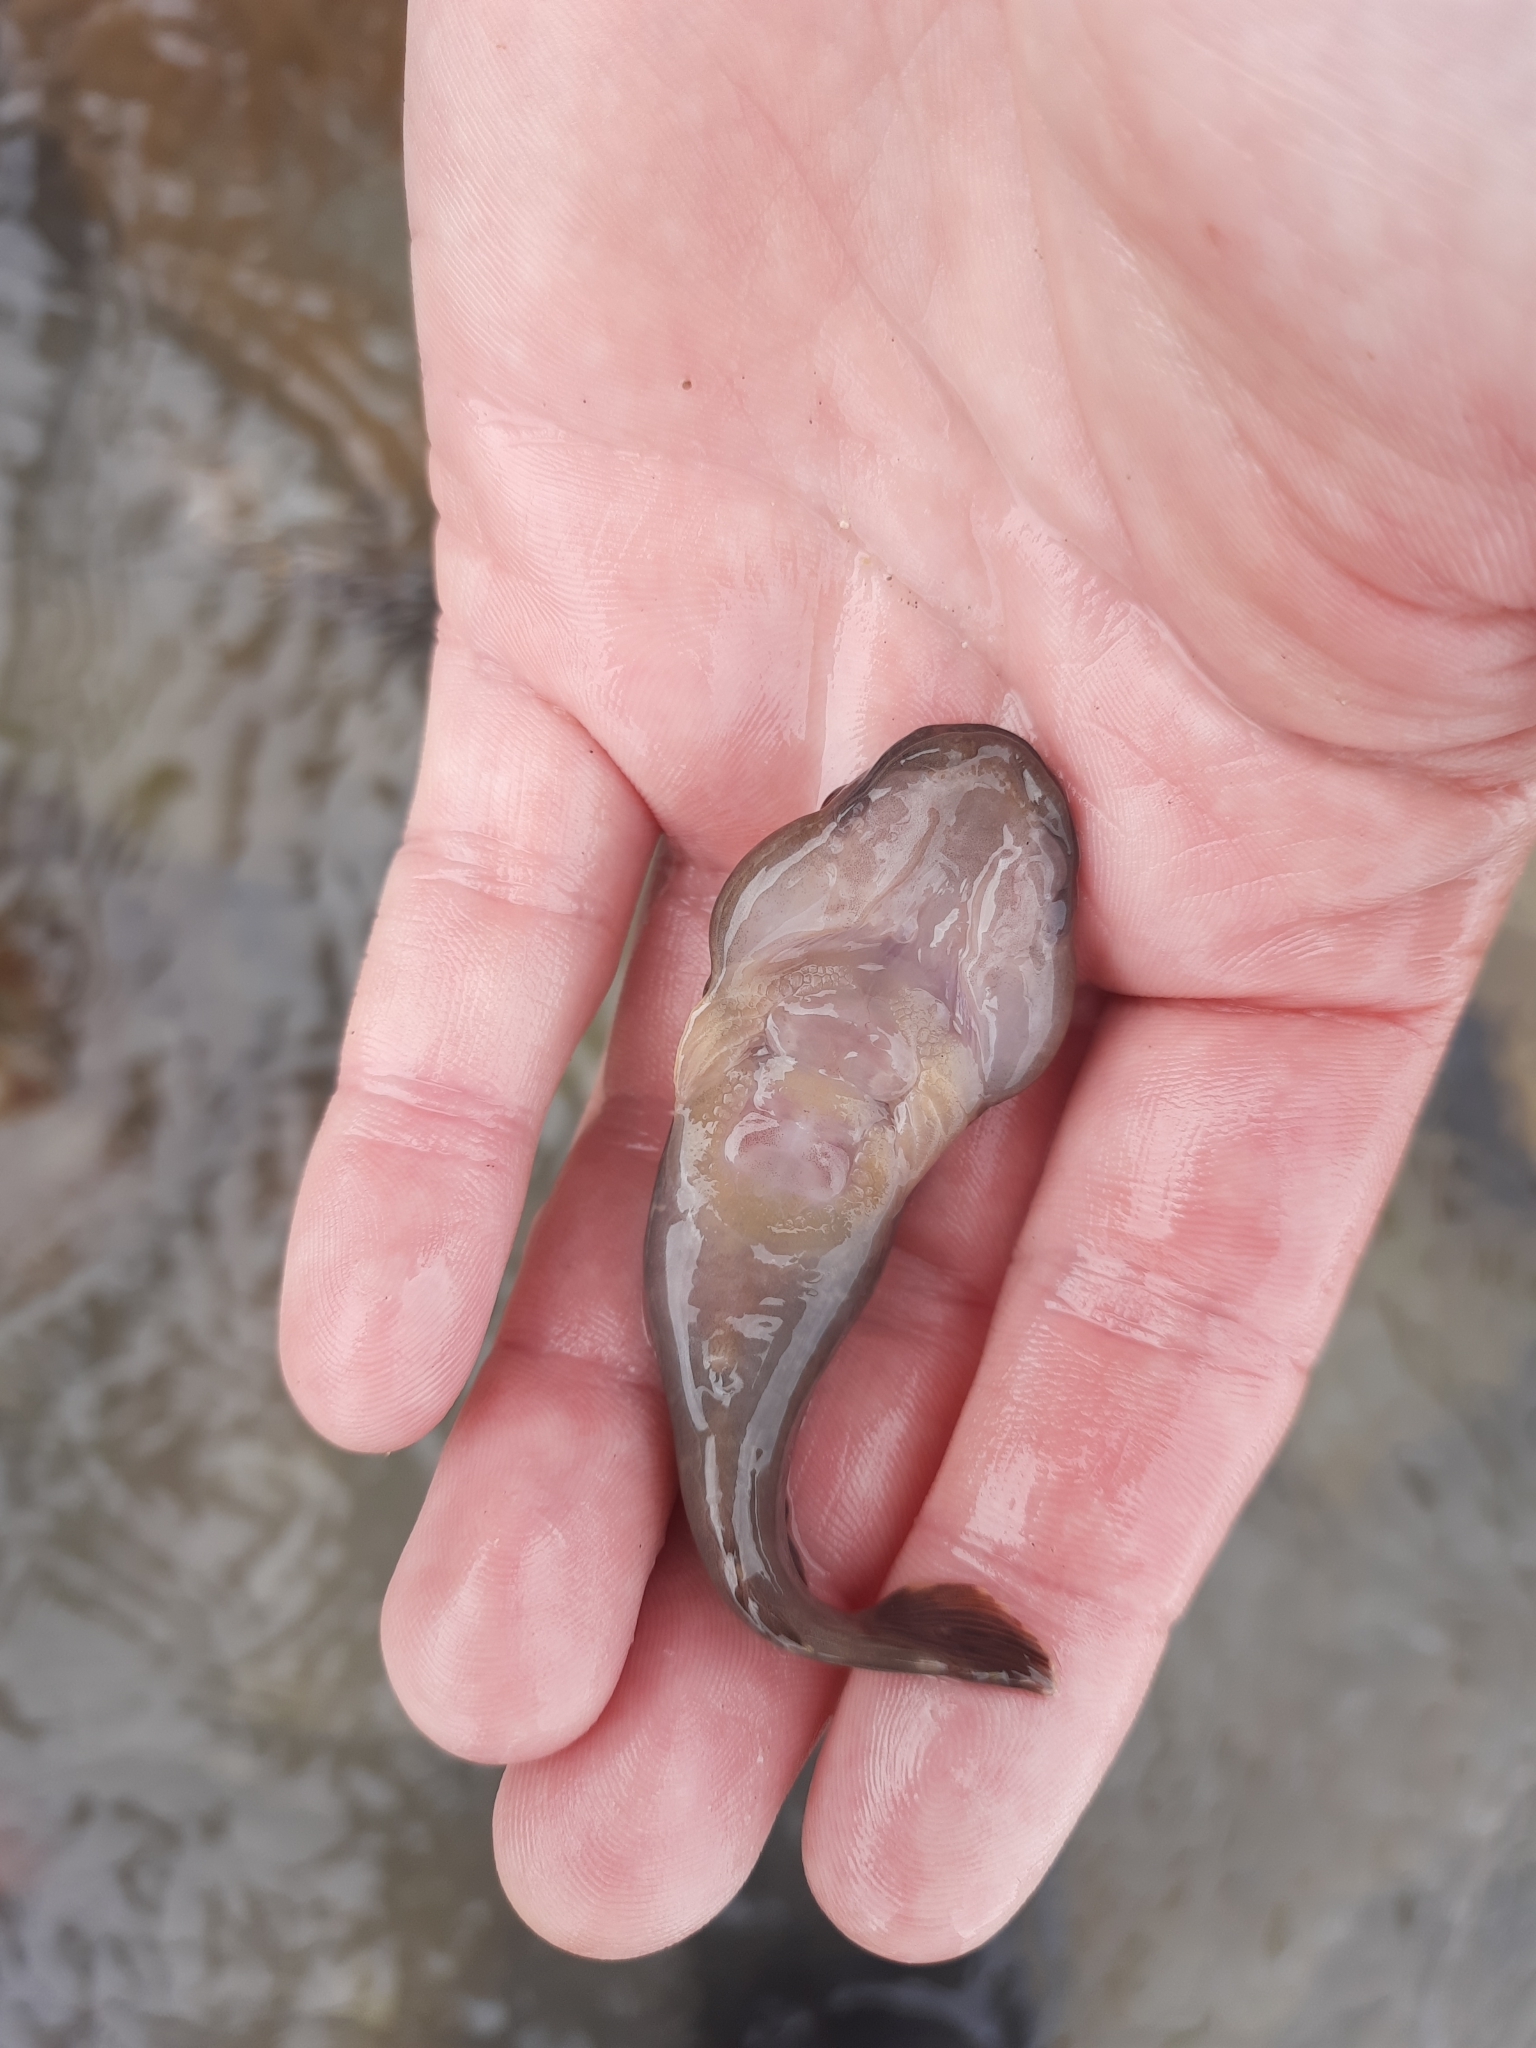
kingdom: Animalia
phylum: Chordata
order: Gobiesociformes
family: Gobiesocidae
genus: Trachelochismus
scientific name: Trachelochismus pinnulatus
